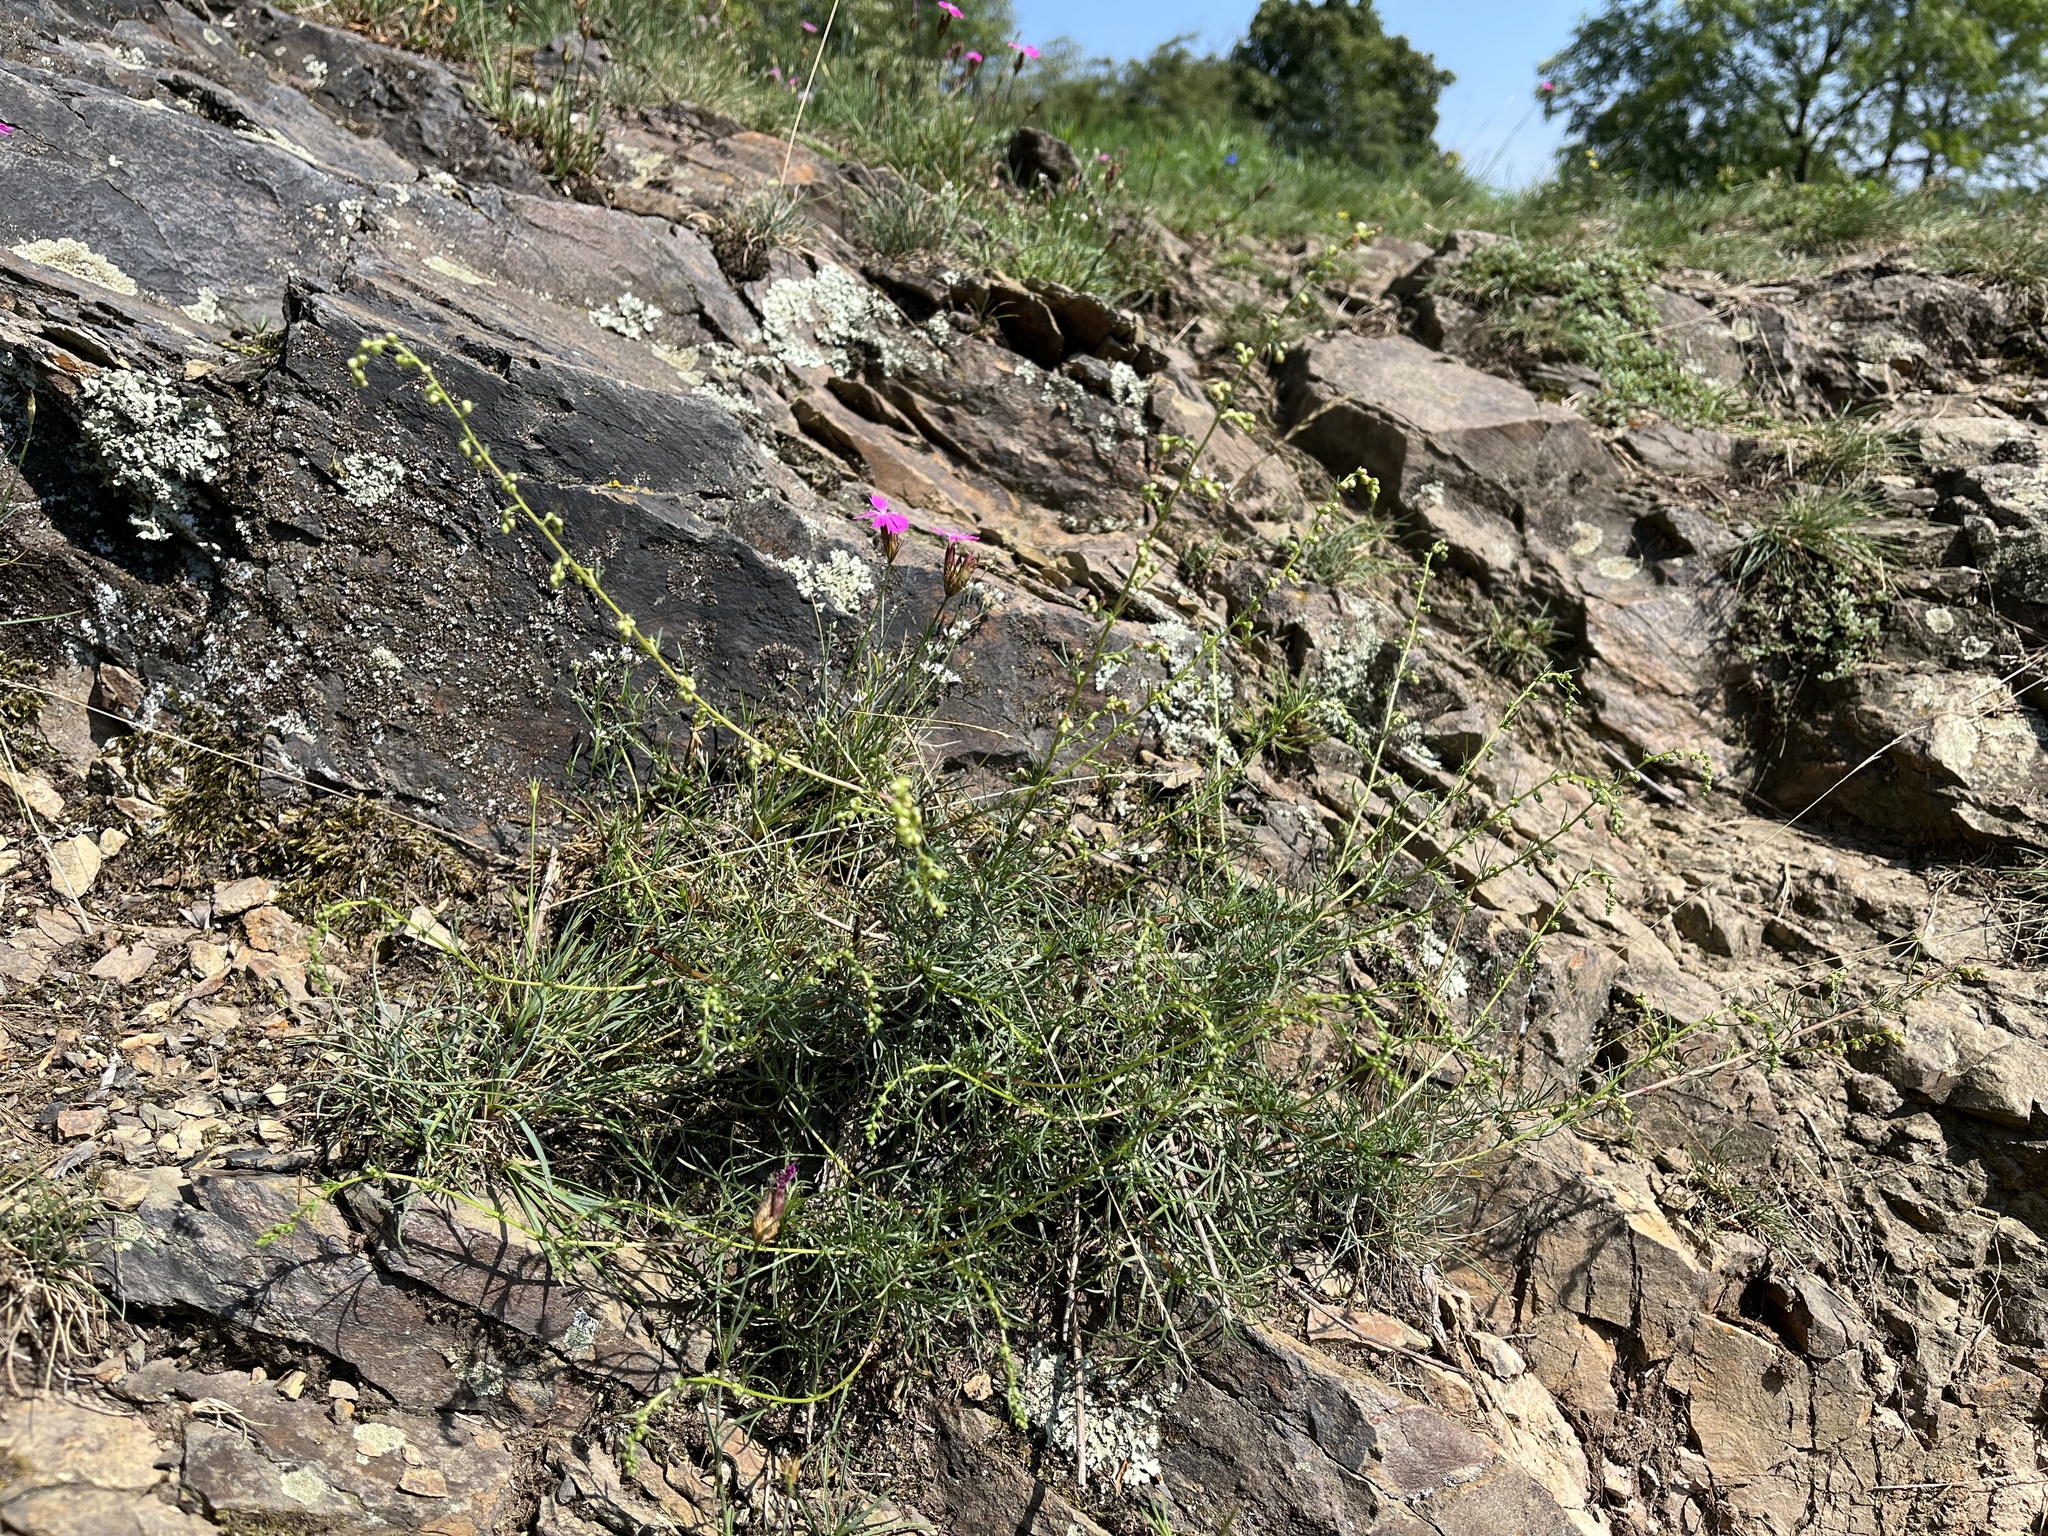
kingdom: Plantae
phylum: Tracheophyta
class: Magnoliopsida
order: Asterales
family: Asteraceae
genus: Artemisia
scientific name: Artemisia campestris
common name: Field wormwood
